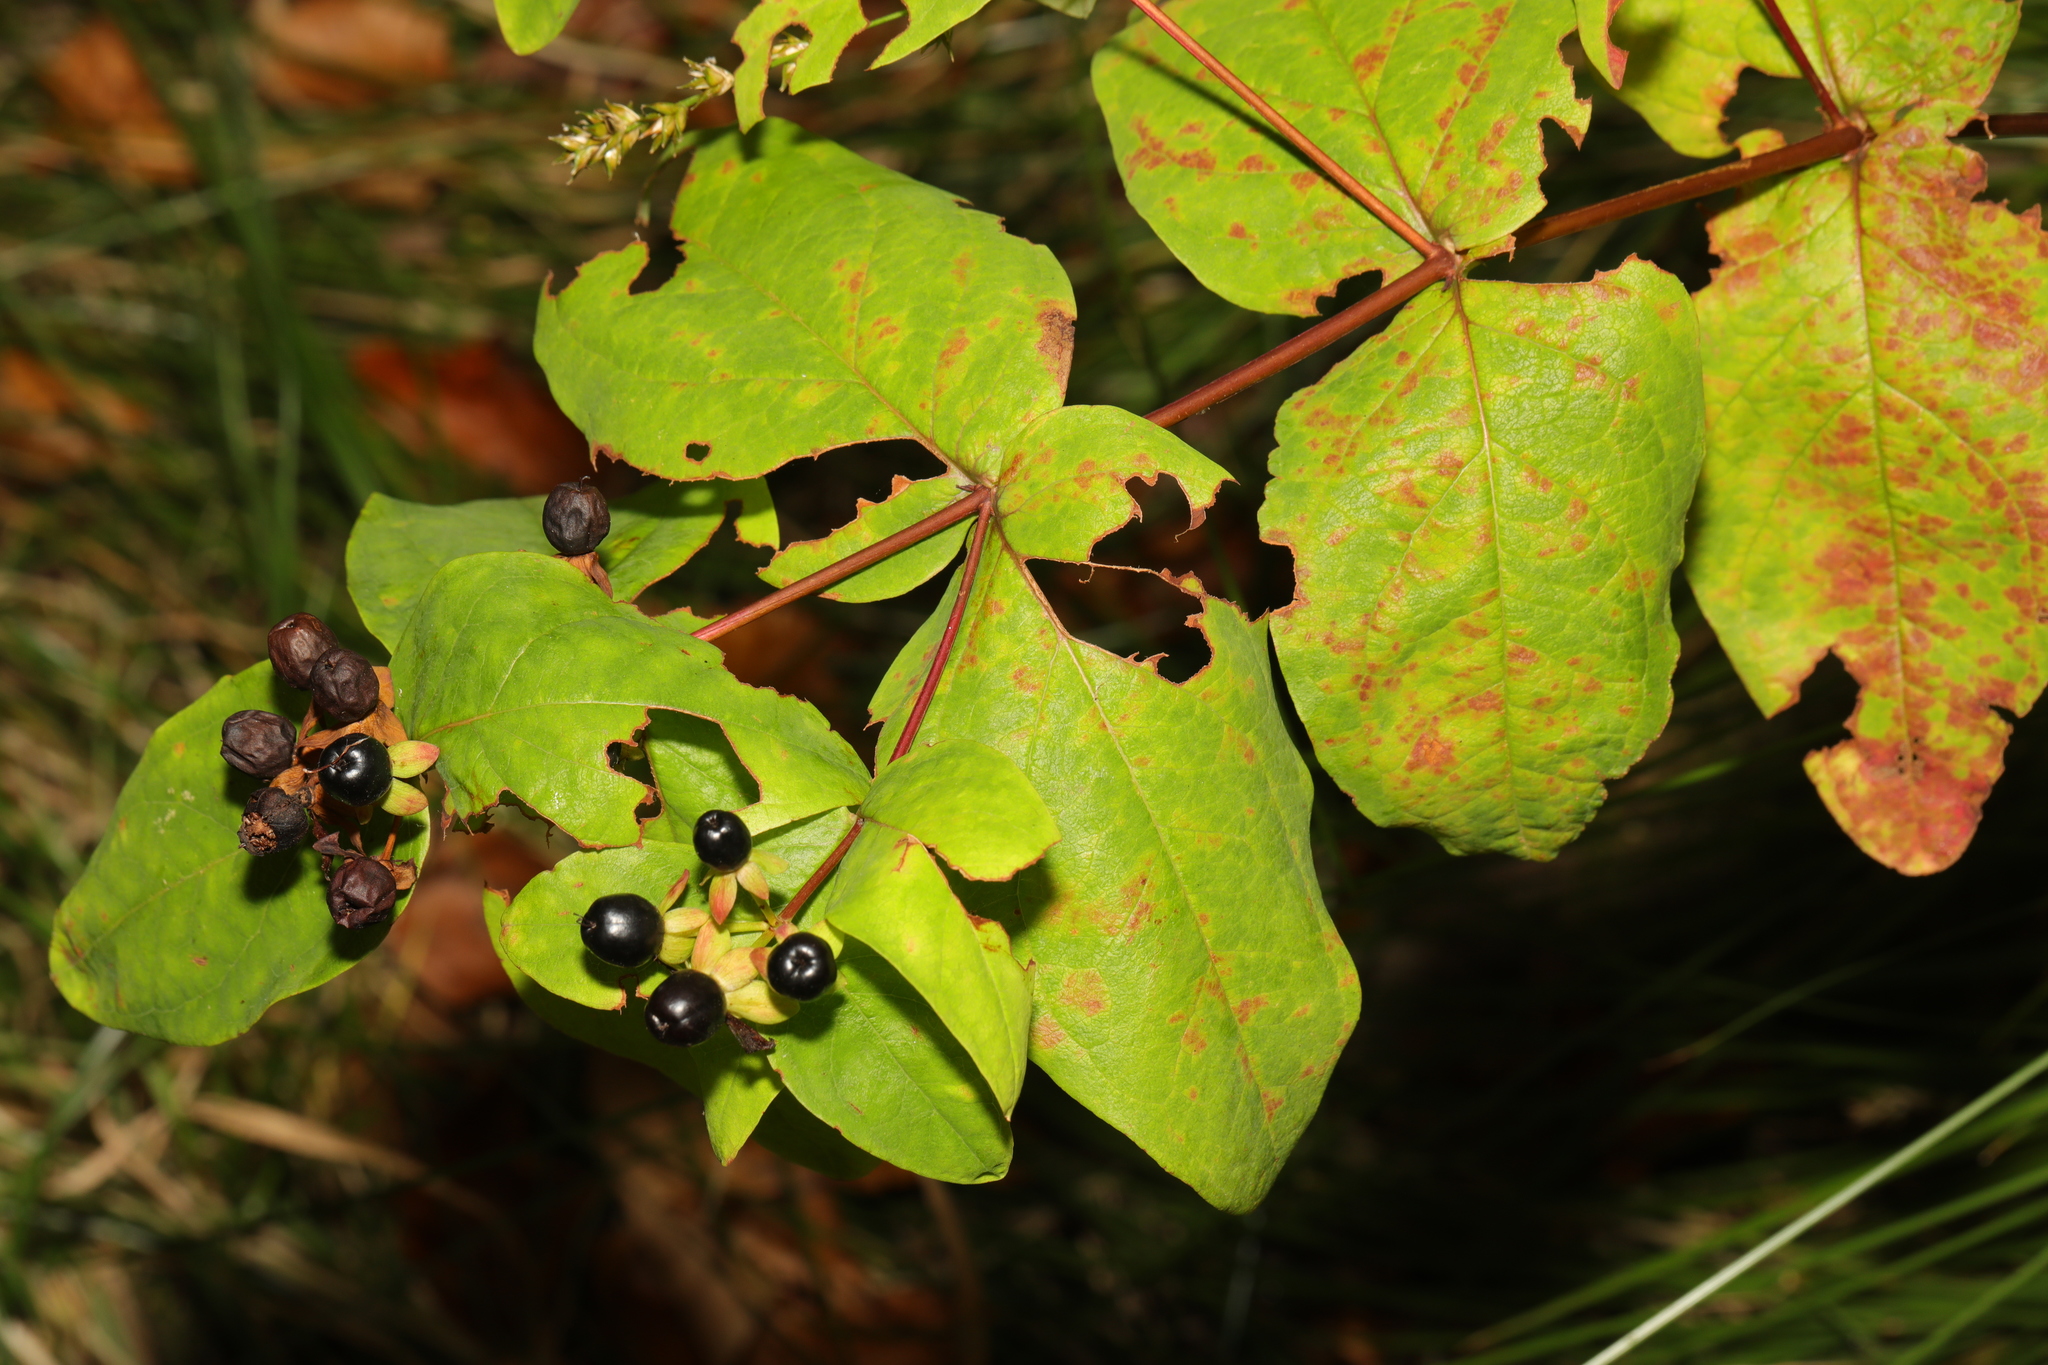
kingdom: Plantae
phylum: Tracheophyta
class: Magnoliopsida
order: Malpighiales
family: Hypericaceae
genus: Hypericum
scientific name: Hypericum androsaemum
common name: Sweet-amber
